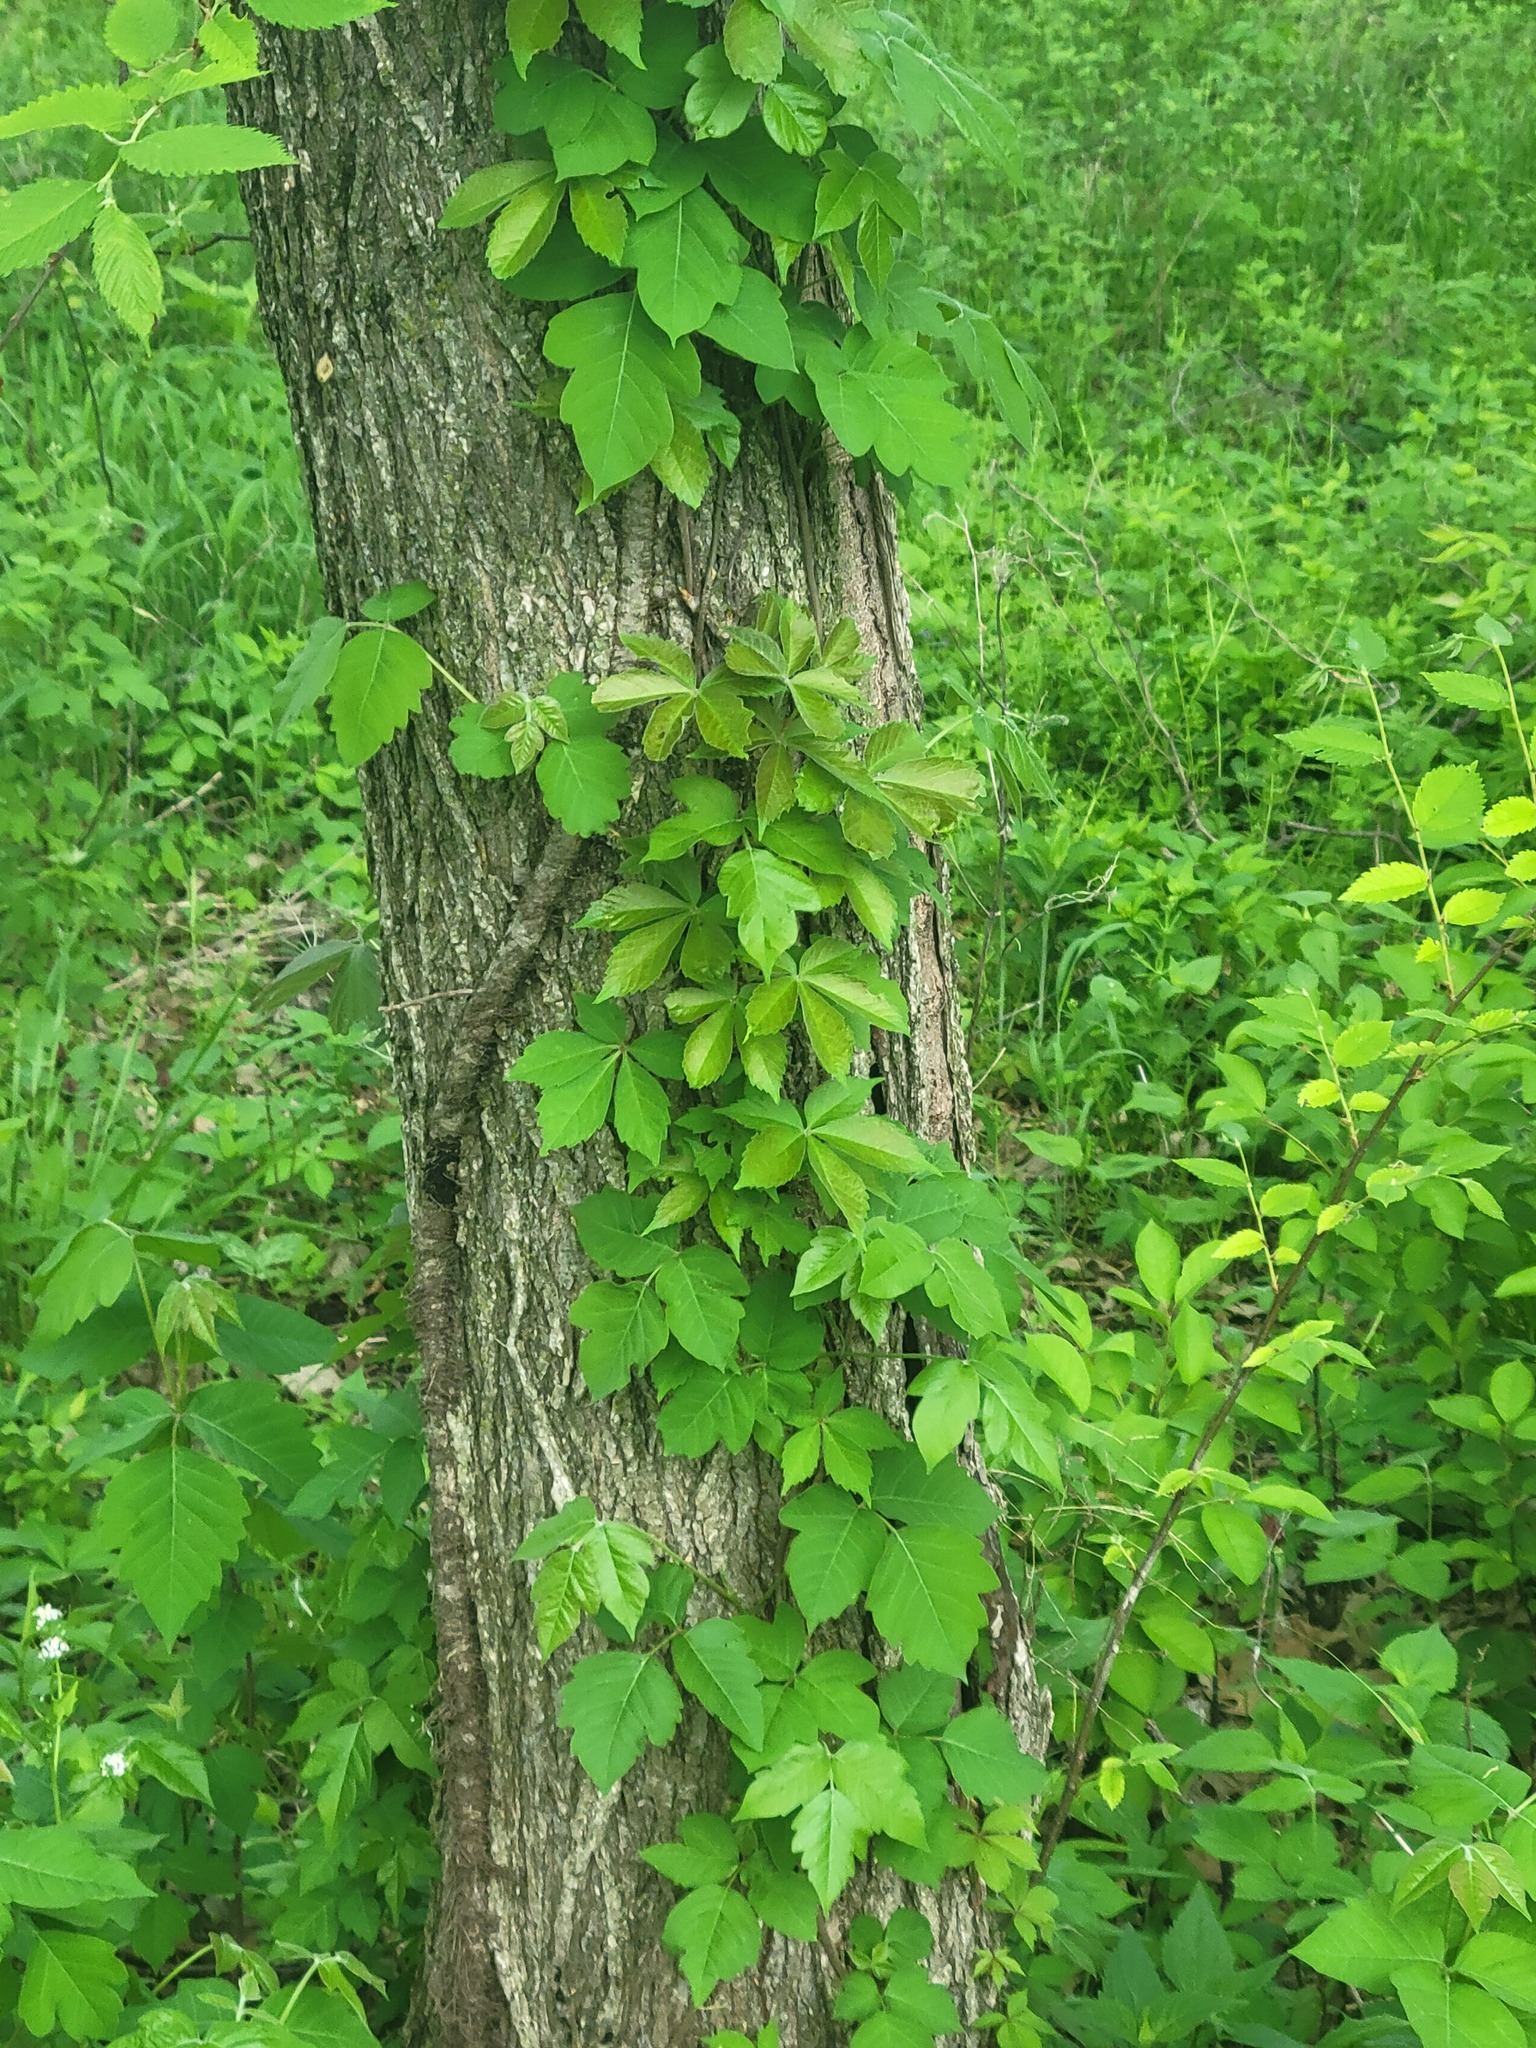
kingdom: Plantae
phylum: Tracheophyta
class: Magnoliopsida
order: Sapindales
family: Anacardiaceae
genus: Toxicodendron
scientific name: Toxicodendron radicans
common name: Poison ivy
